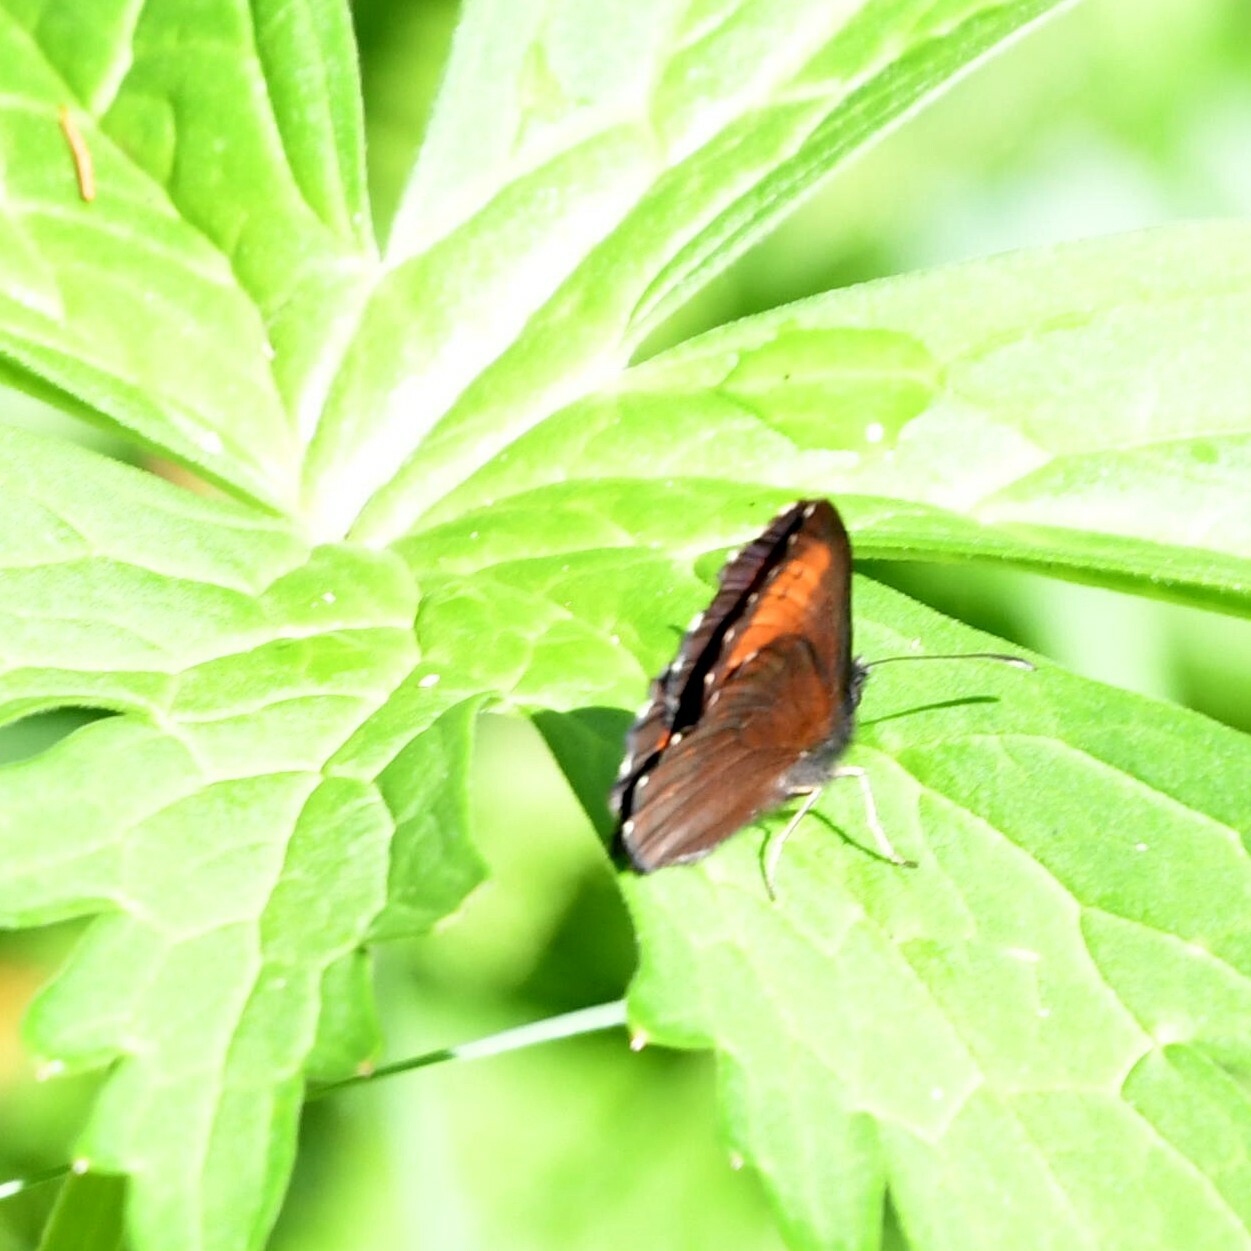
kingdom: Animalia
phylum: Arthropoda
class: Insecta
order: Lepidoptera
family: Nymphalidae
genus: Erebia
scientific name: Erebia euryale
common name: Large ringlet
